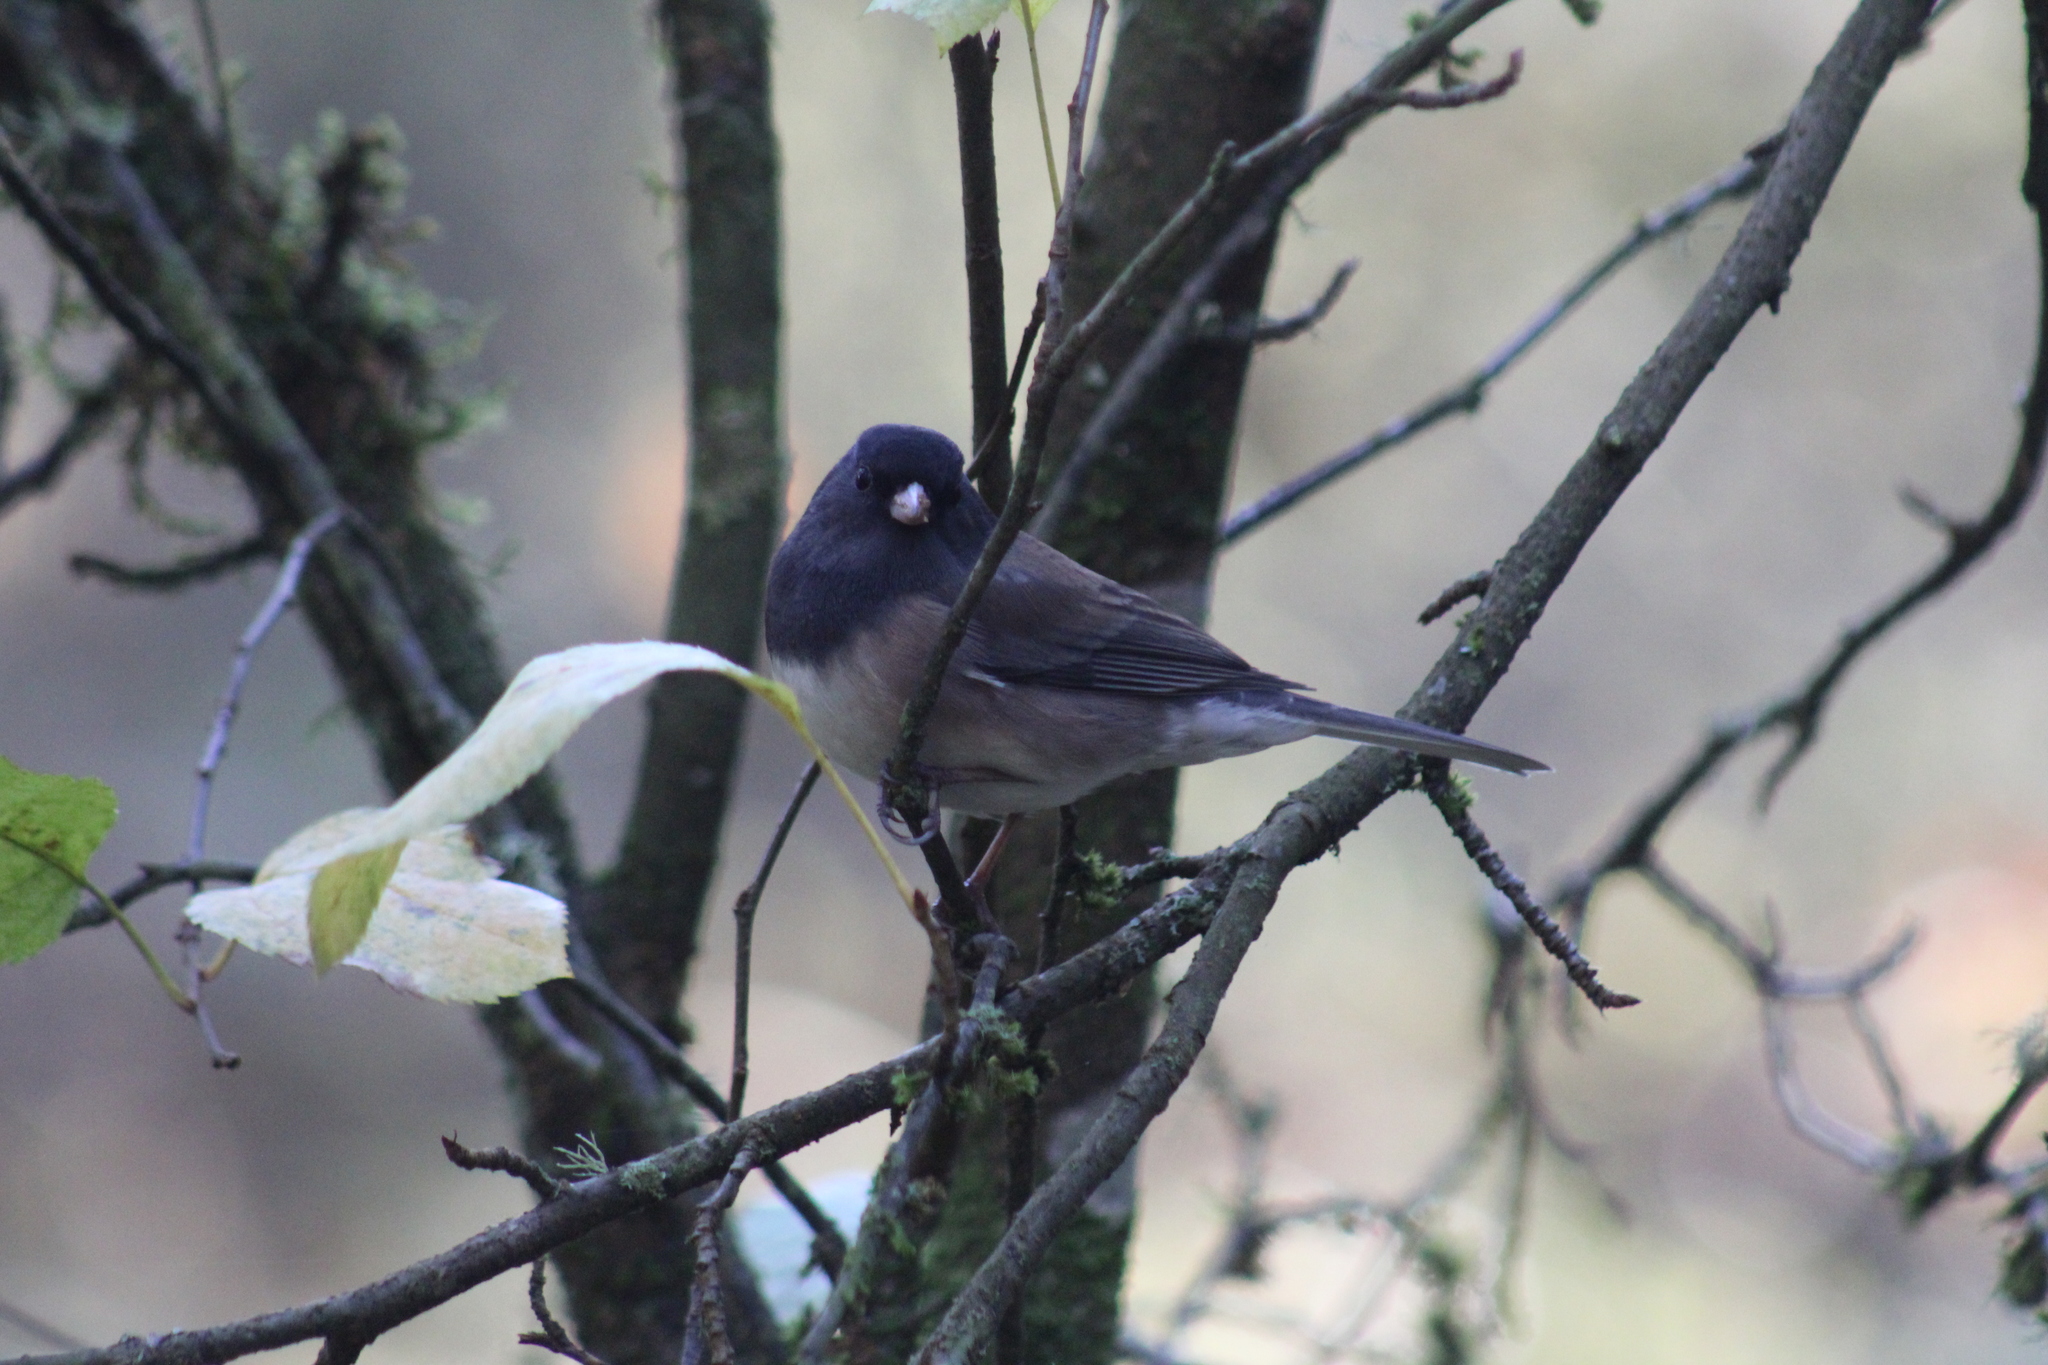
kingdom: Animalia
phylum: Chordata
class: Aves
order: Passeriformes
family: Passerellidae
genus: Junco
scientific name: Junco hyemalis
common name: Dark-eyed junco
